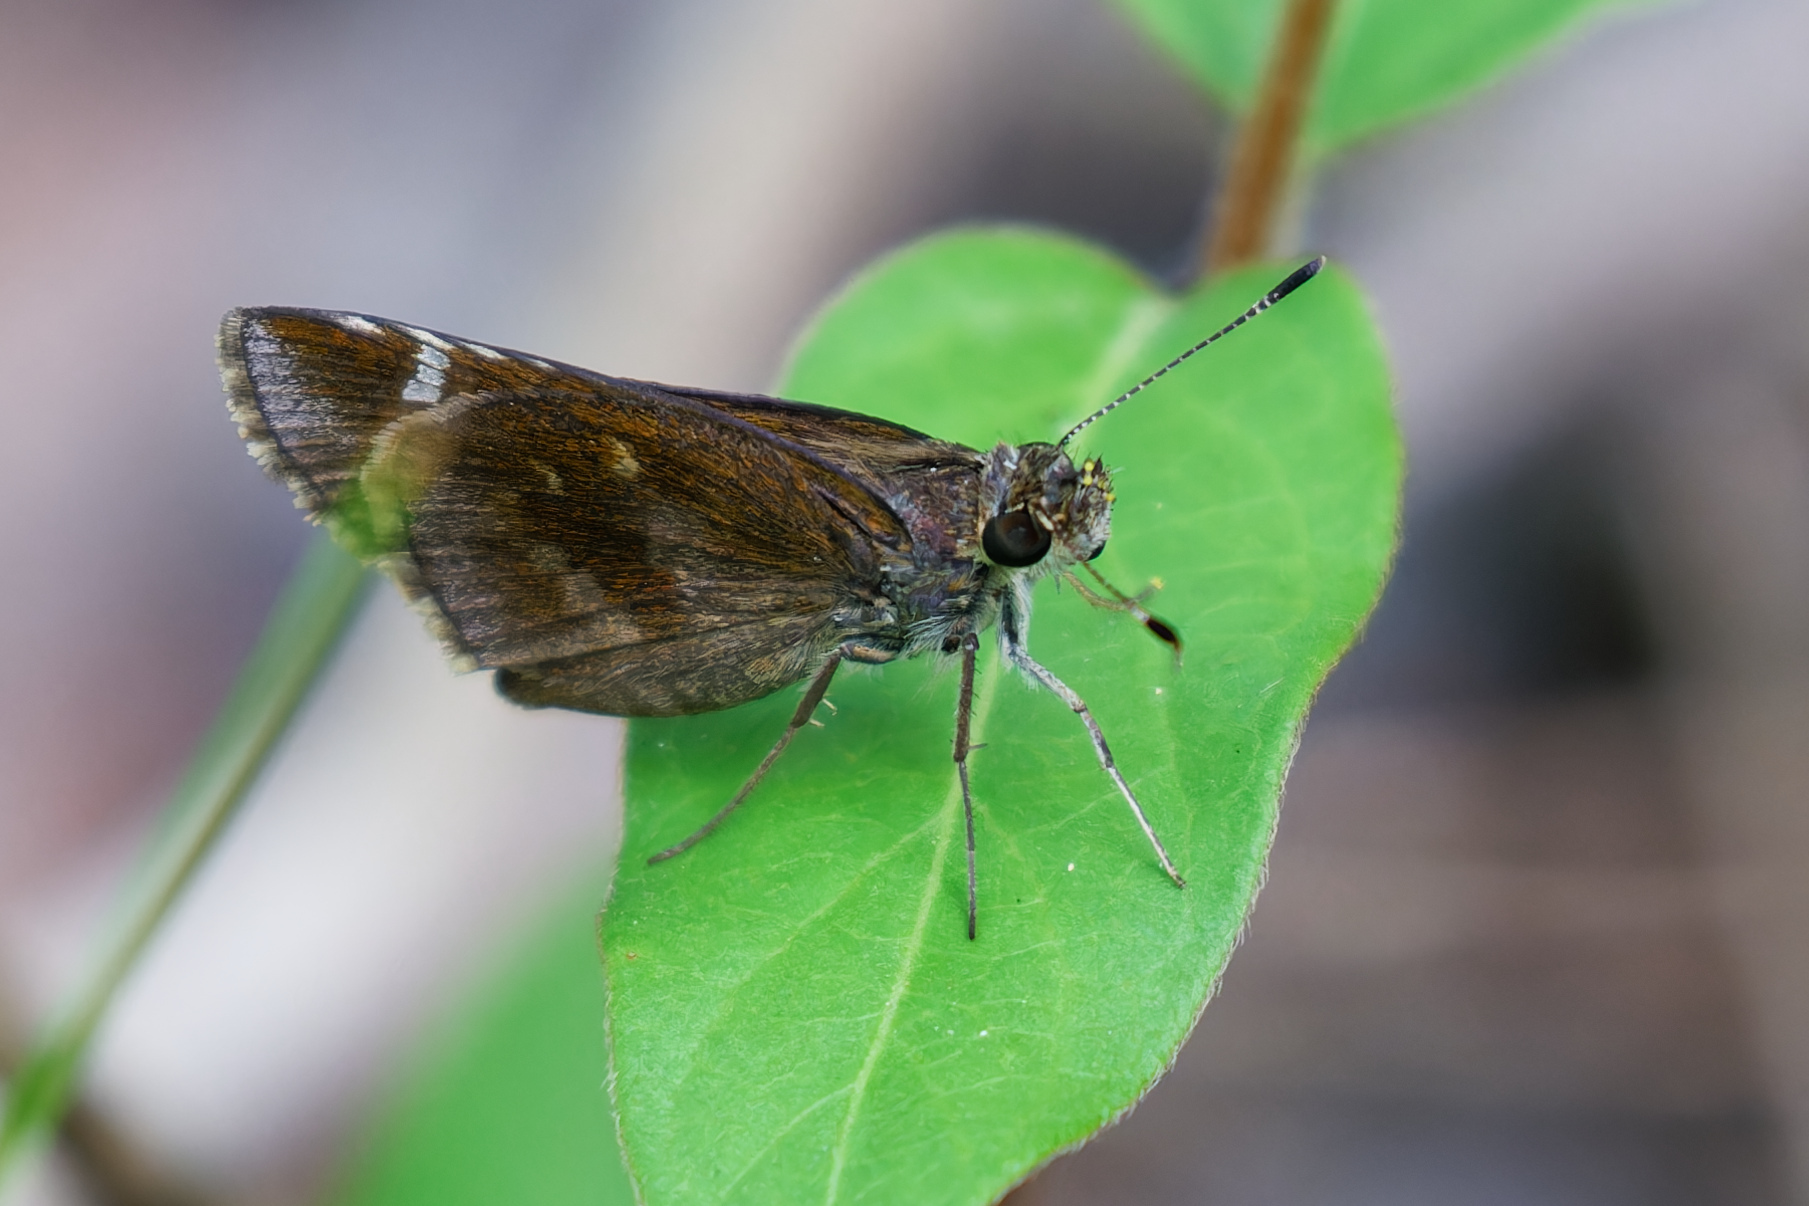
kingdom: Animalia
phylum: Arthropoda
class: Insecta
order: Lepidoptera
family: Hesperiidae
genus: Lerema
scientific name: Lerema accius
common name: Clouded skipper
